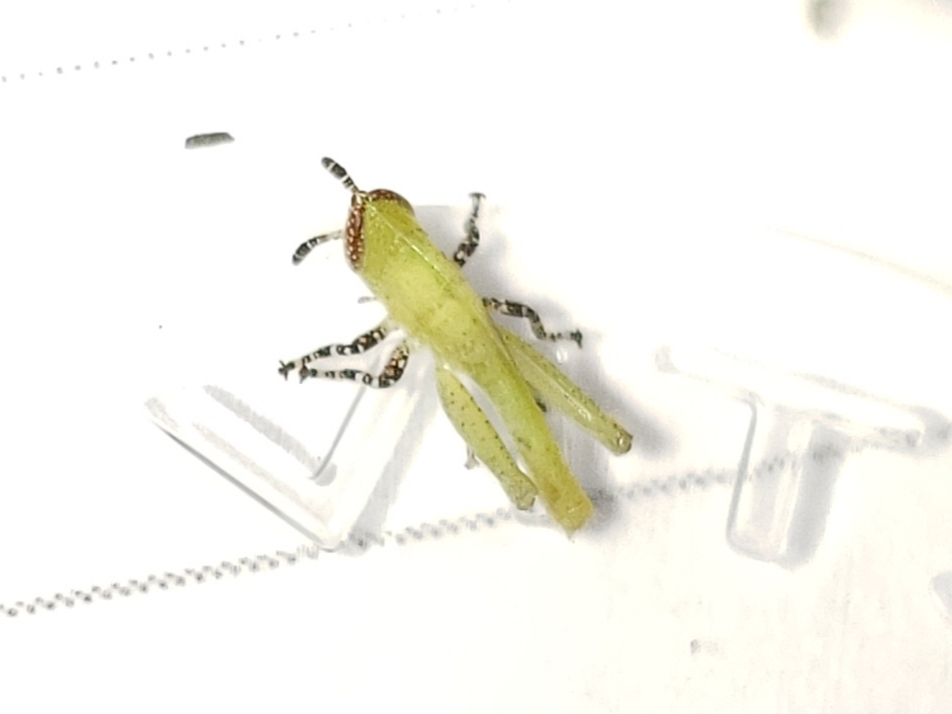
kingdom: Animalia
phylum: Arthropoda
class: Insecta
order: Orthoptera
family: Acrididae
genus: Aptenopedes
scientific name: Aptenopedes sphenarioides
